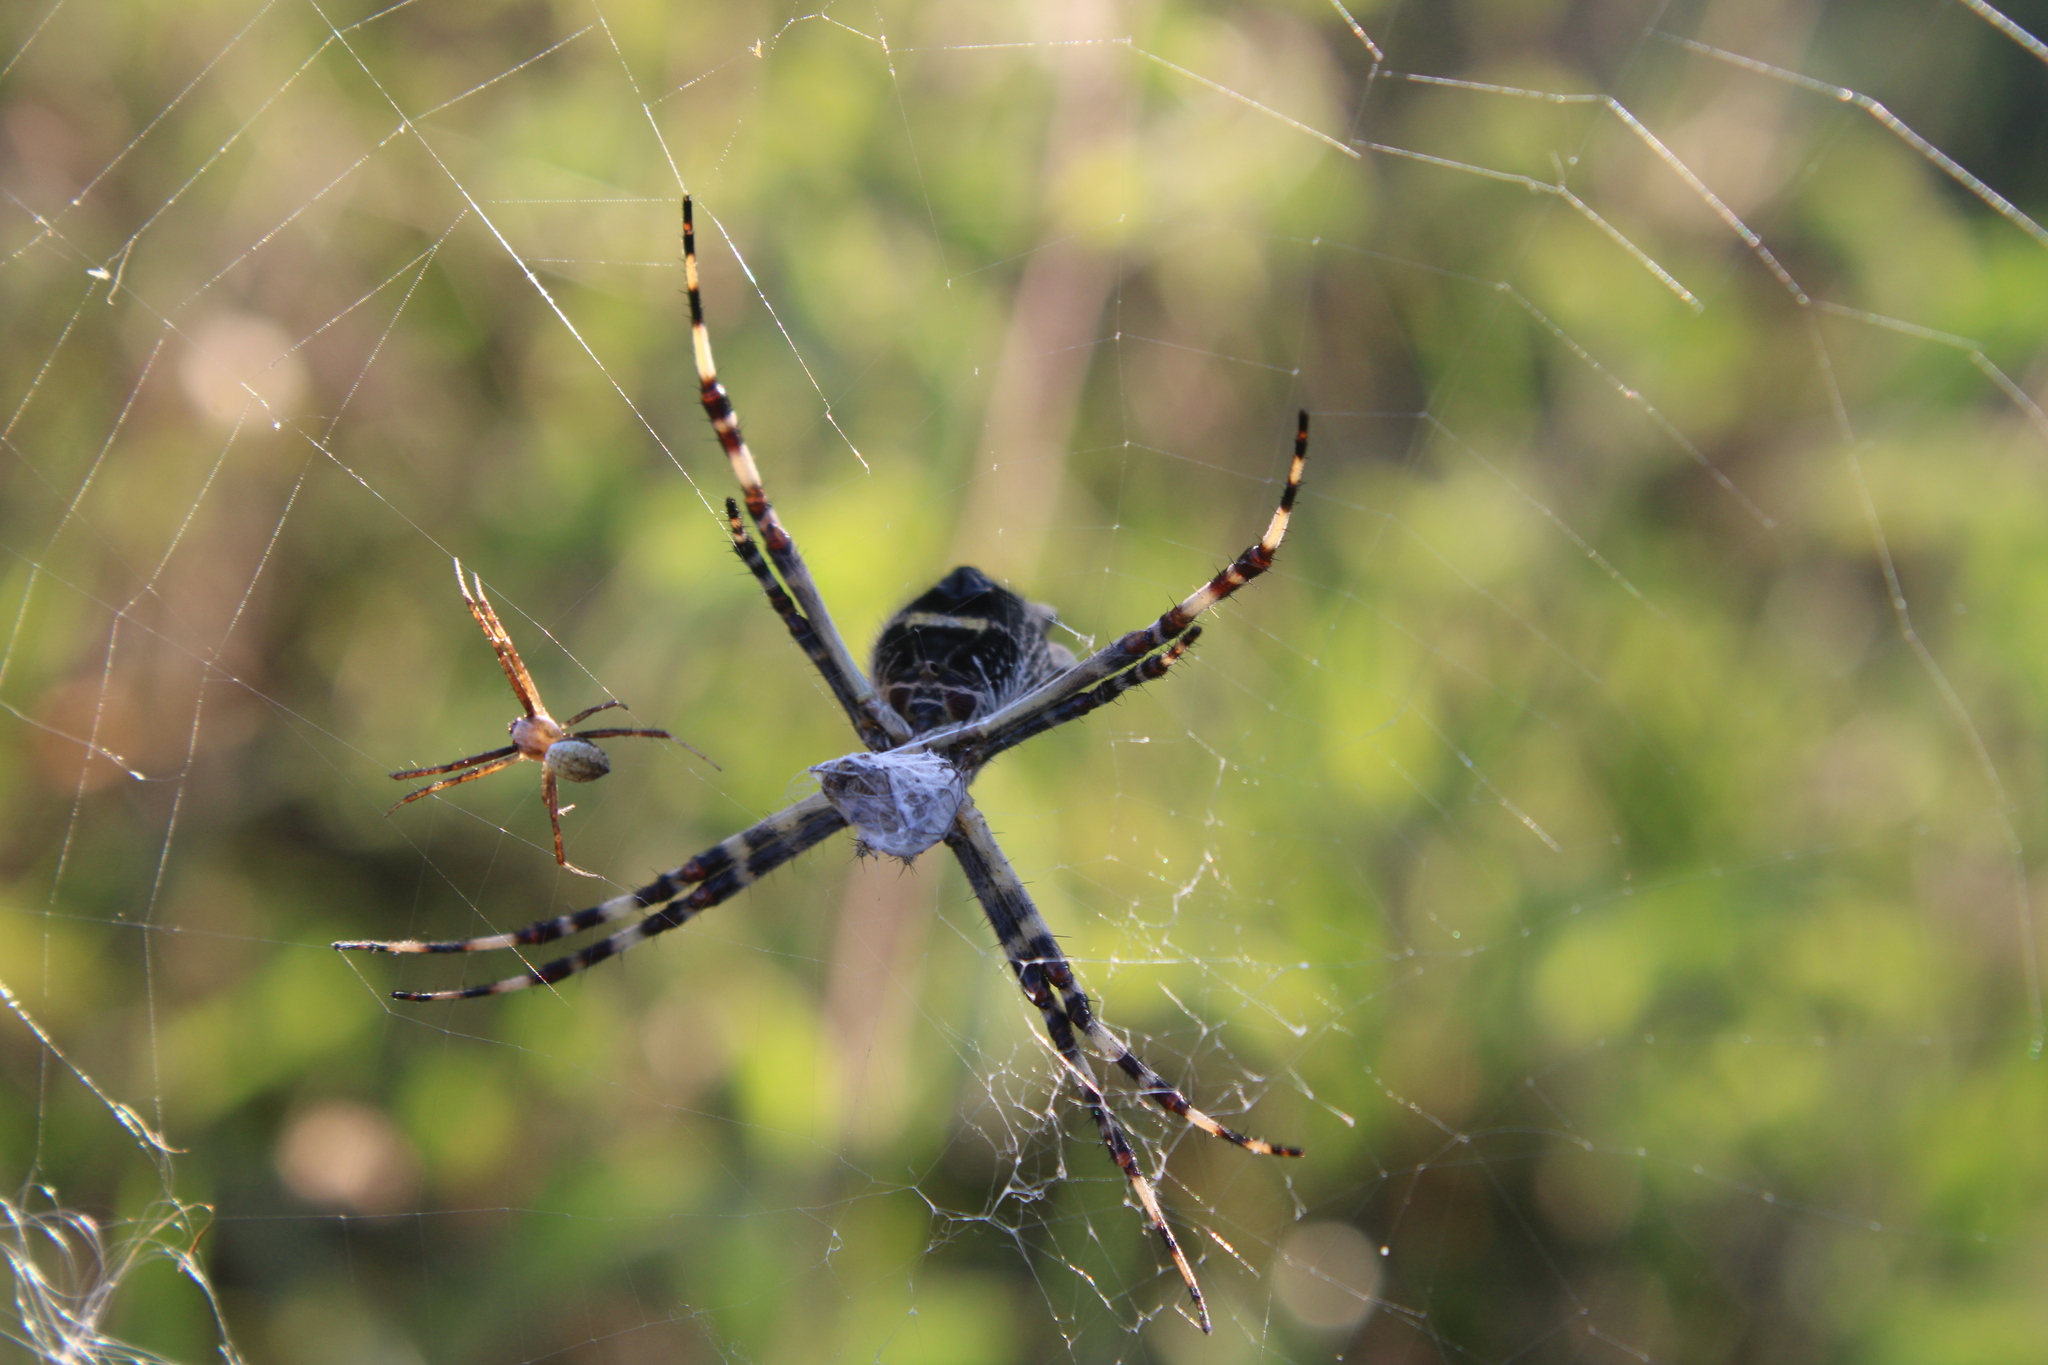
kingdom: Animalia
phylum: Arthropoda
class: Arachnida
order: Araneae
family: Araneidae
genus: Argiope
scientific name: Argiope argentata
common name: Orb weavers
